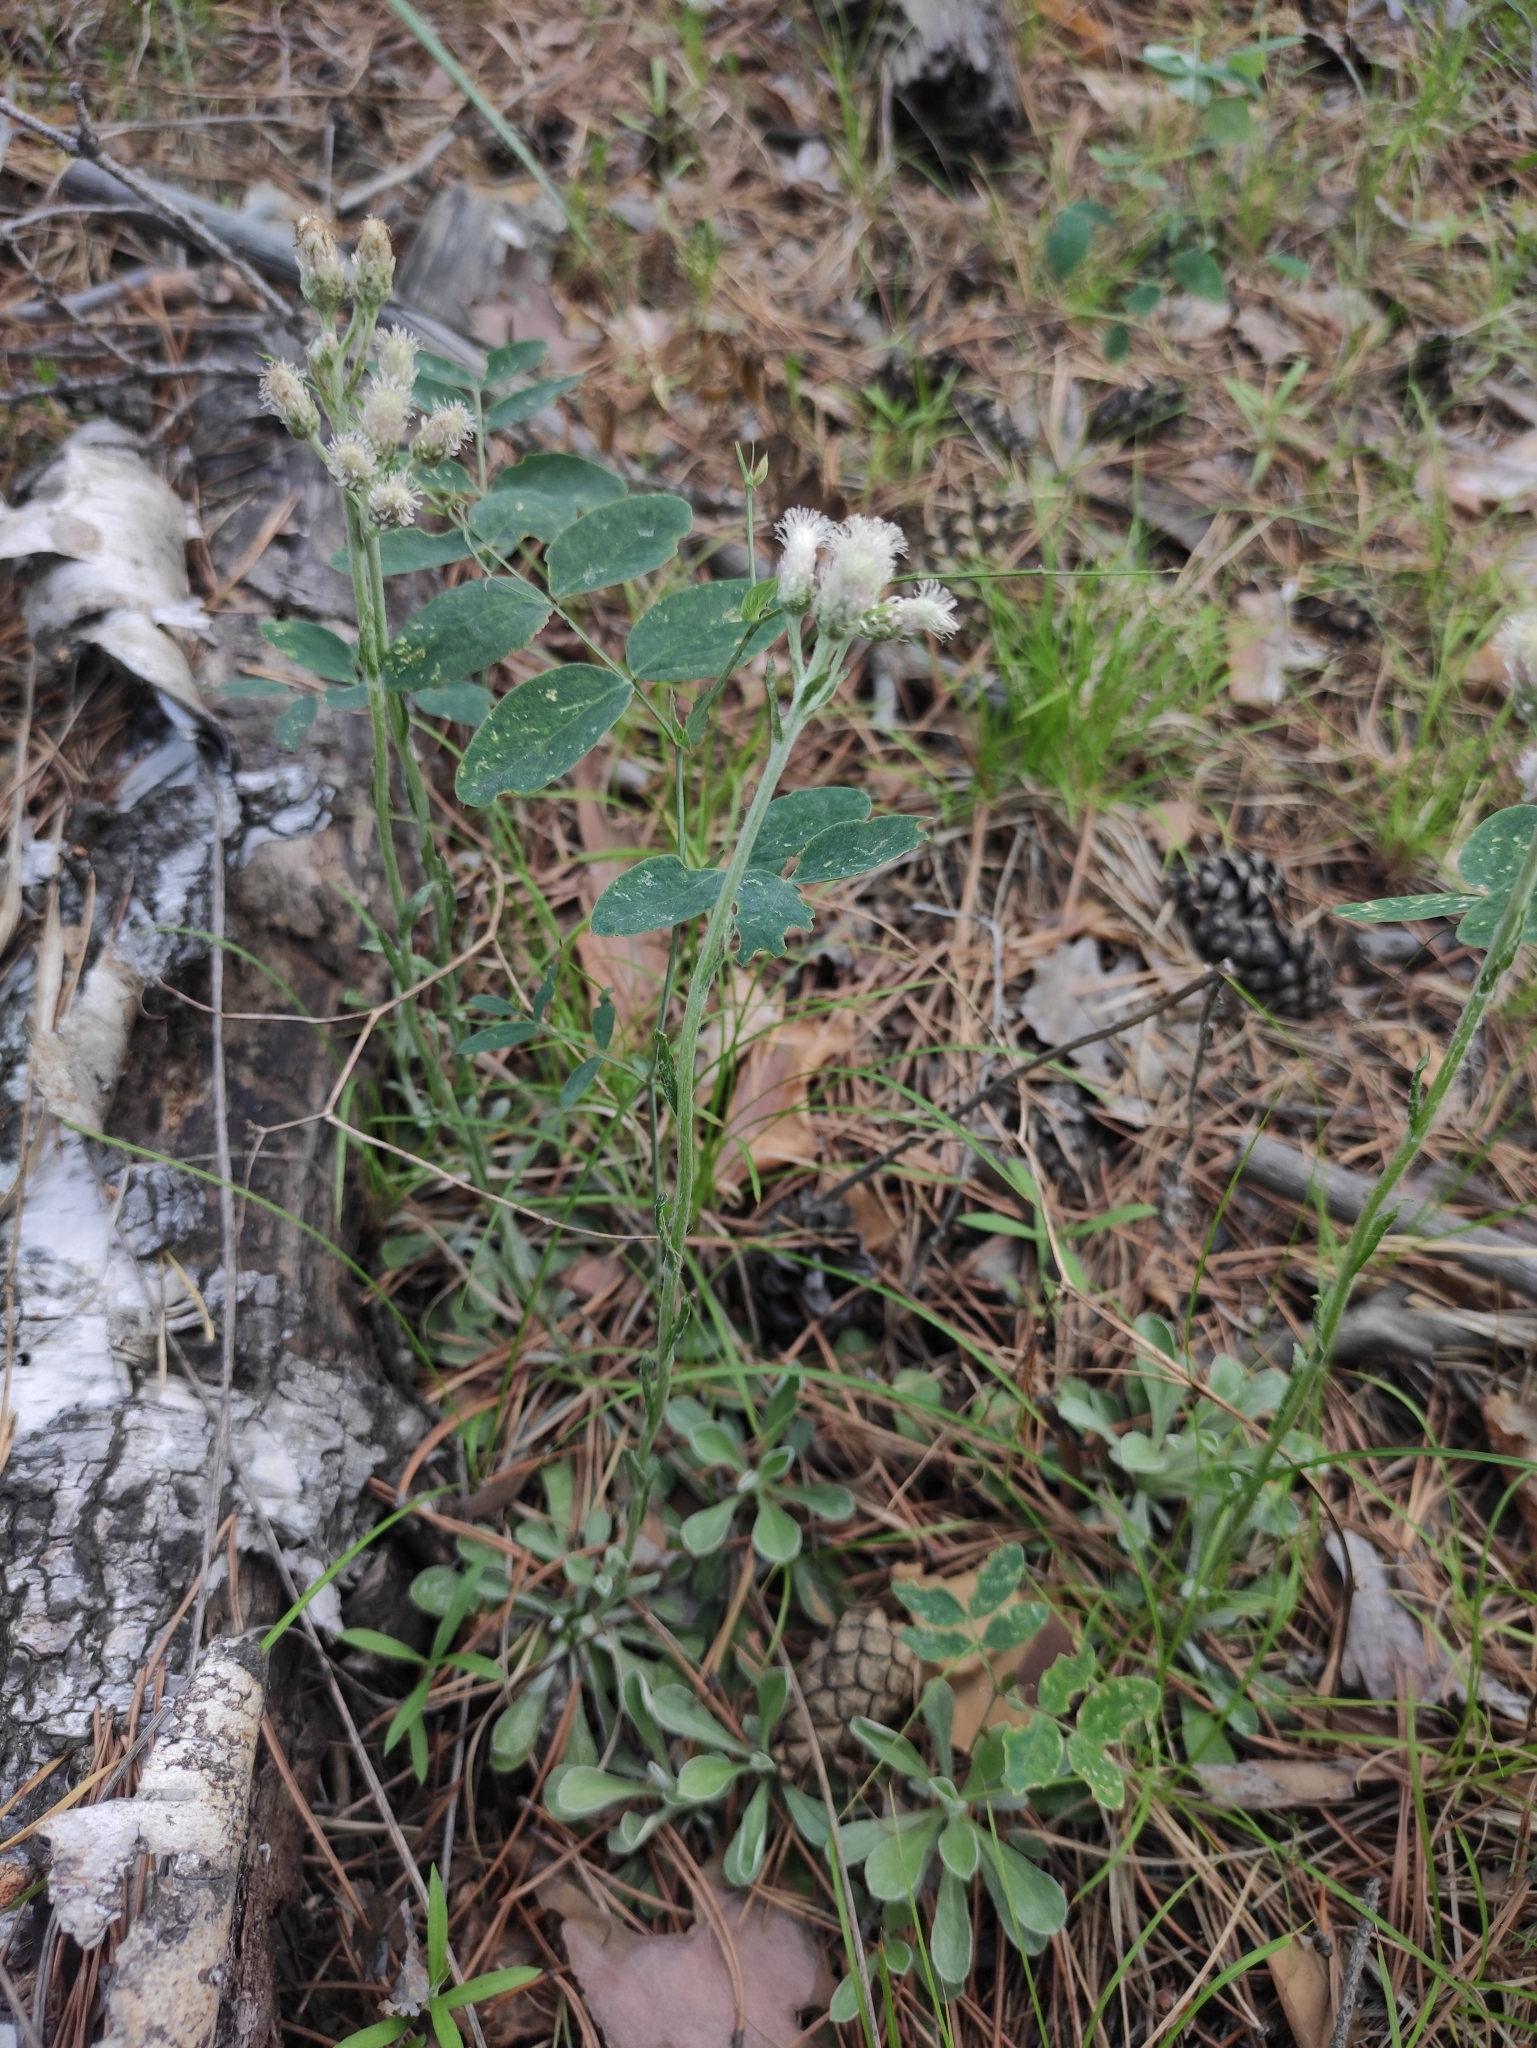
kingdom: Plantae
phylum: Tracheophyta
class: Magnoliopsida
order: Asterales
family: Asteraceae
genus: Antennaria
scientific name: Antennaria dioica
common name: Mountain everlasting
